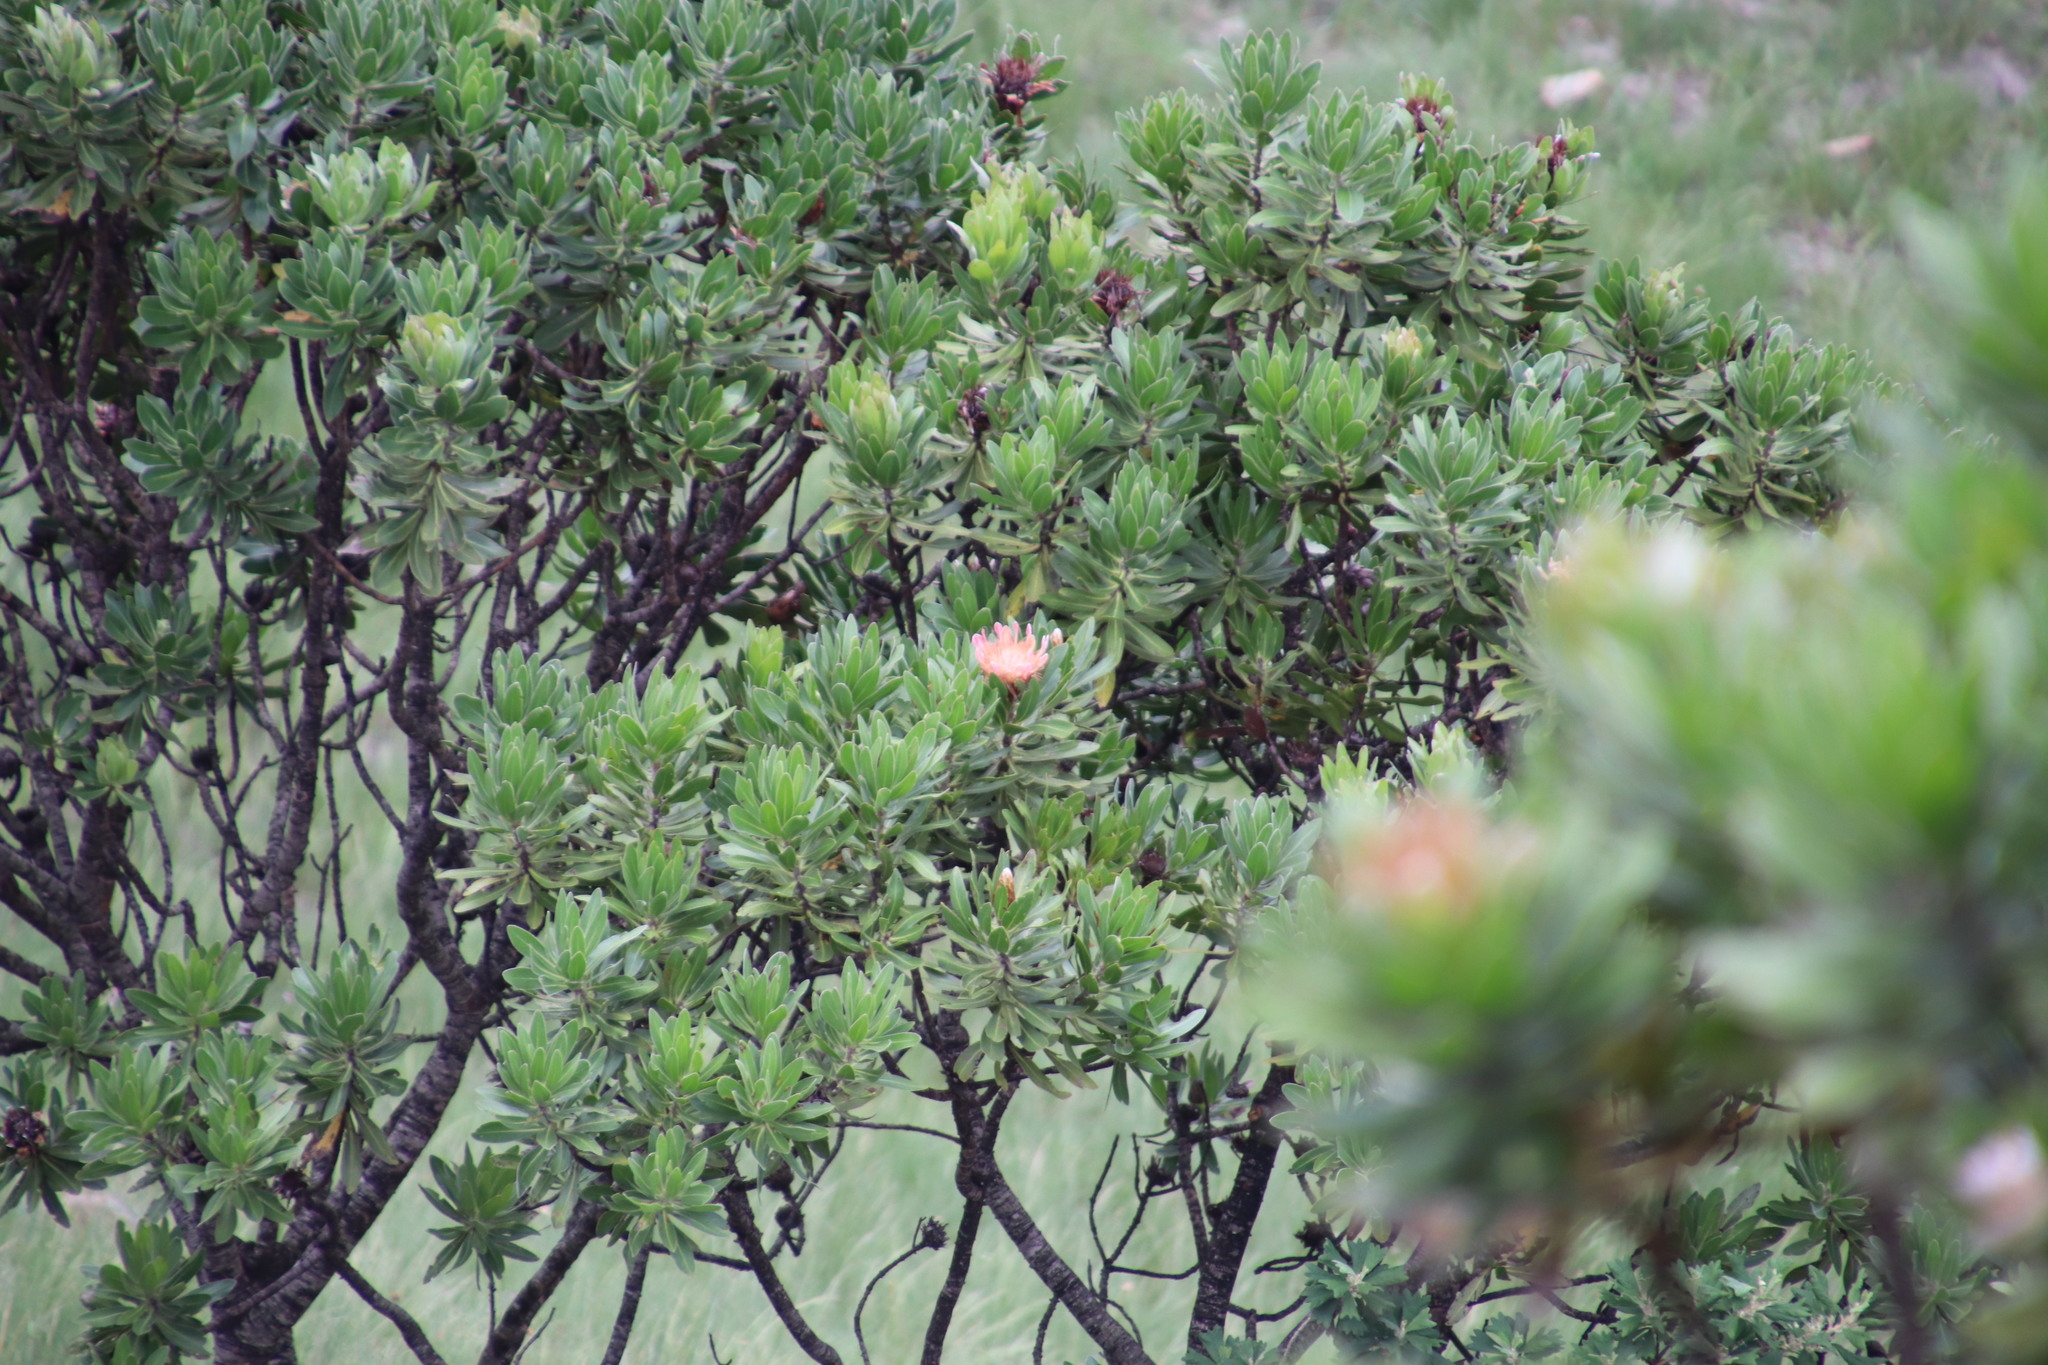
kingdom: Plantae
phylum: Tracheophyta
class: Magnoliopsida
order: Proteales
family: Proteaceae
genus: Protea
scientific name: Protea roupelliae
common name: Silver sugarbush
